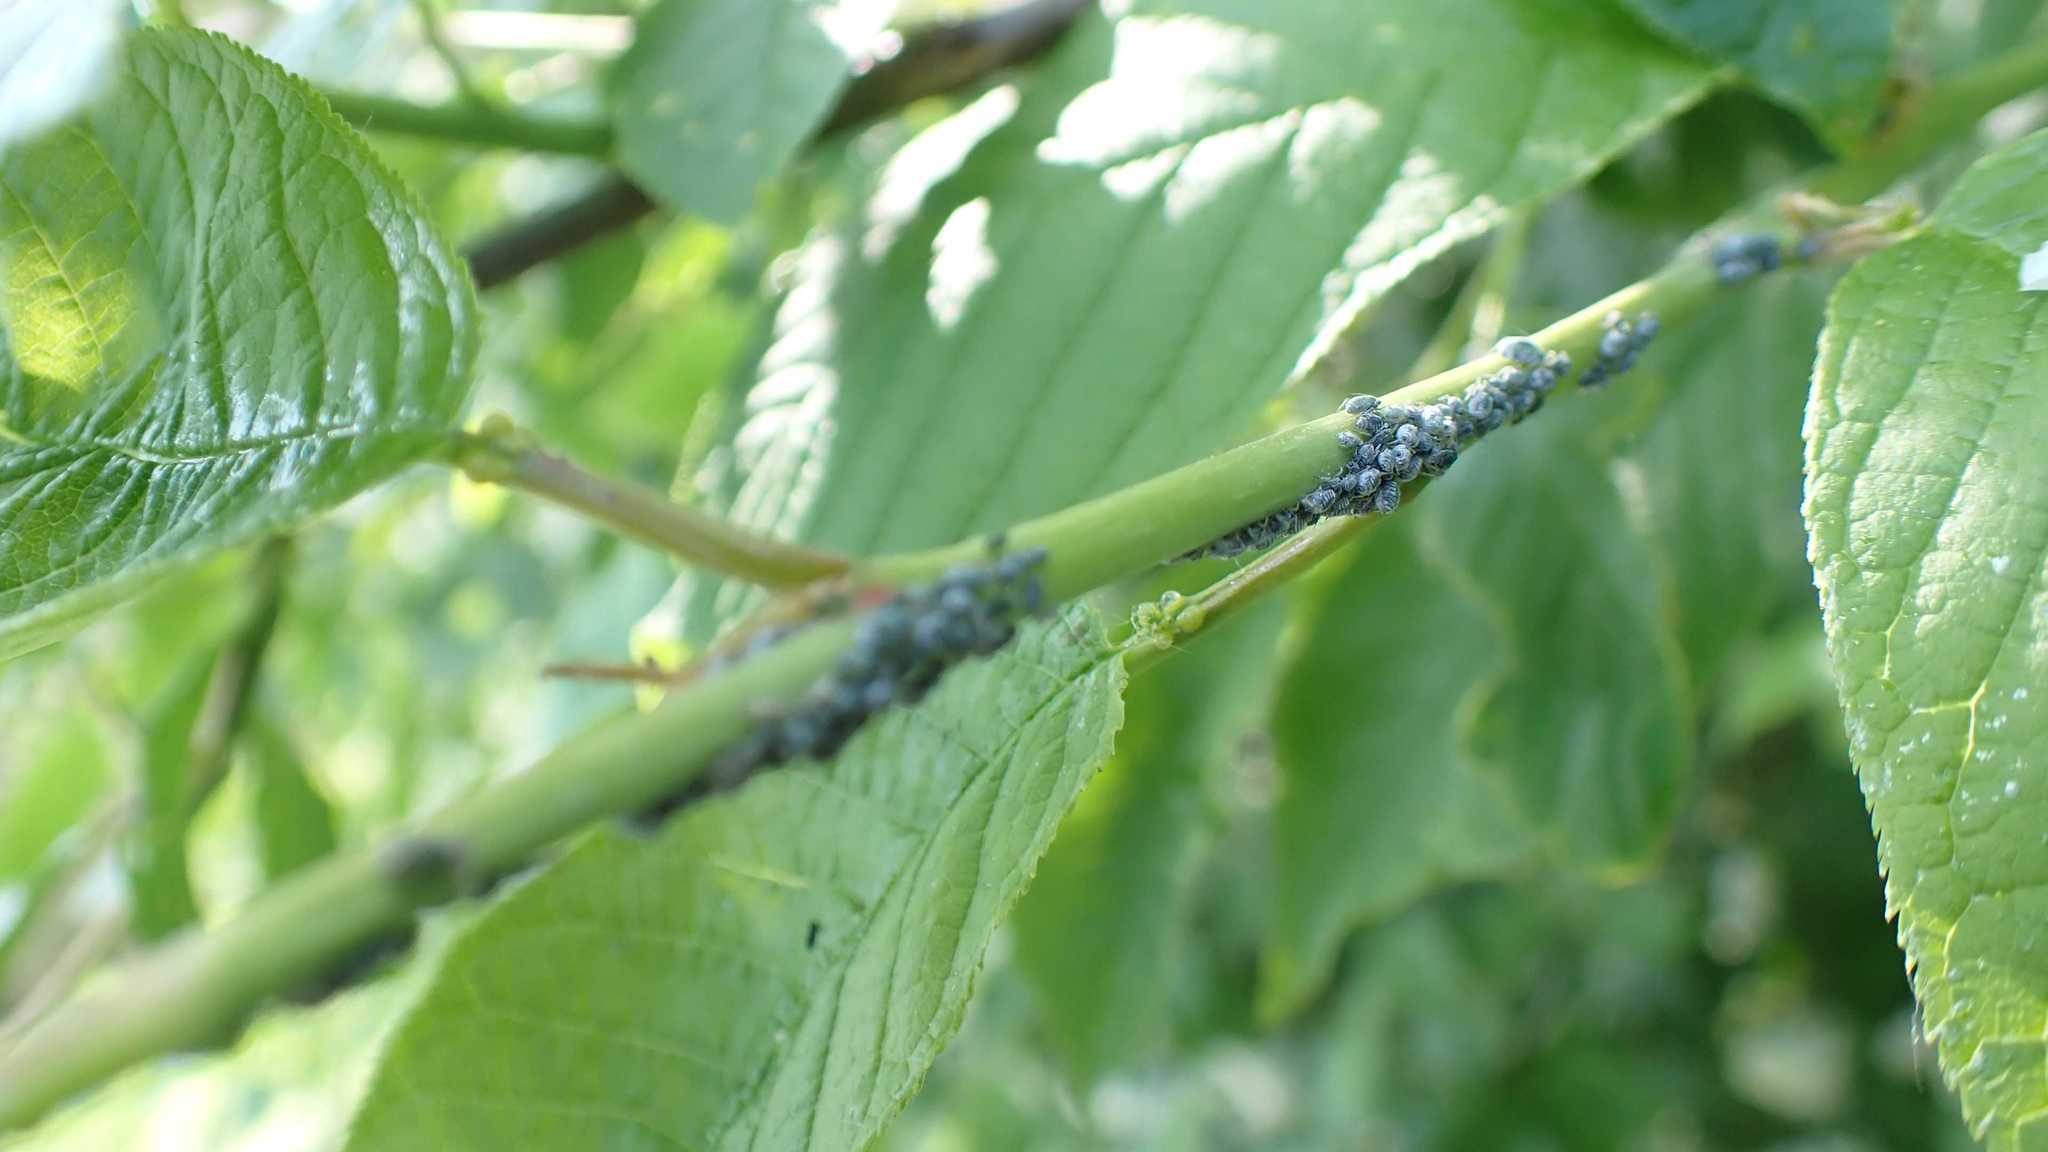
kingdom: Animalia
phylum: Arthropoda
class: Insecta
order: Hemiptera
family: Aphididae
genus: Rhopalosiphum
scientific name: Rhopalosiphum padi
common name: Oat-birdcherry aphid
